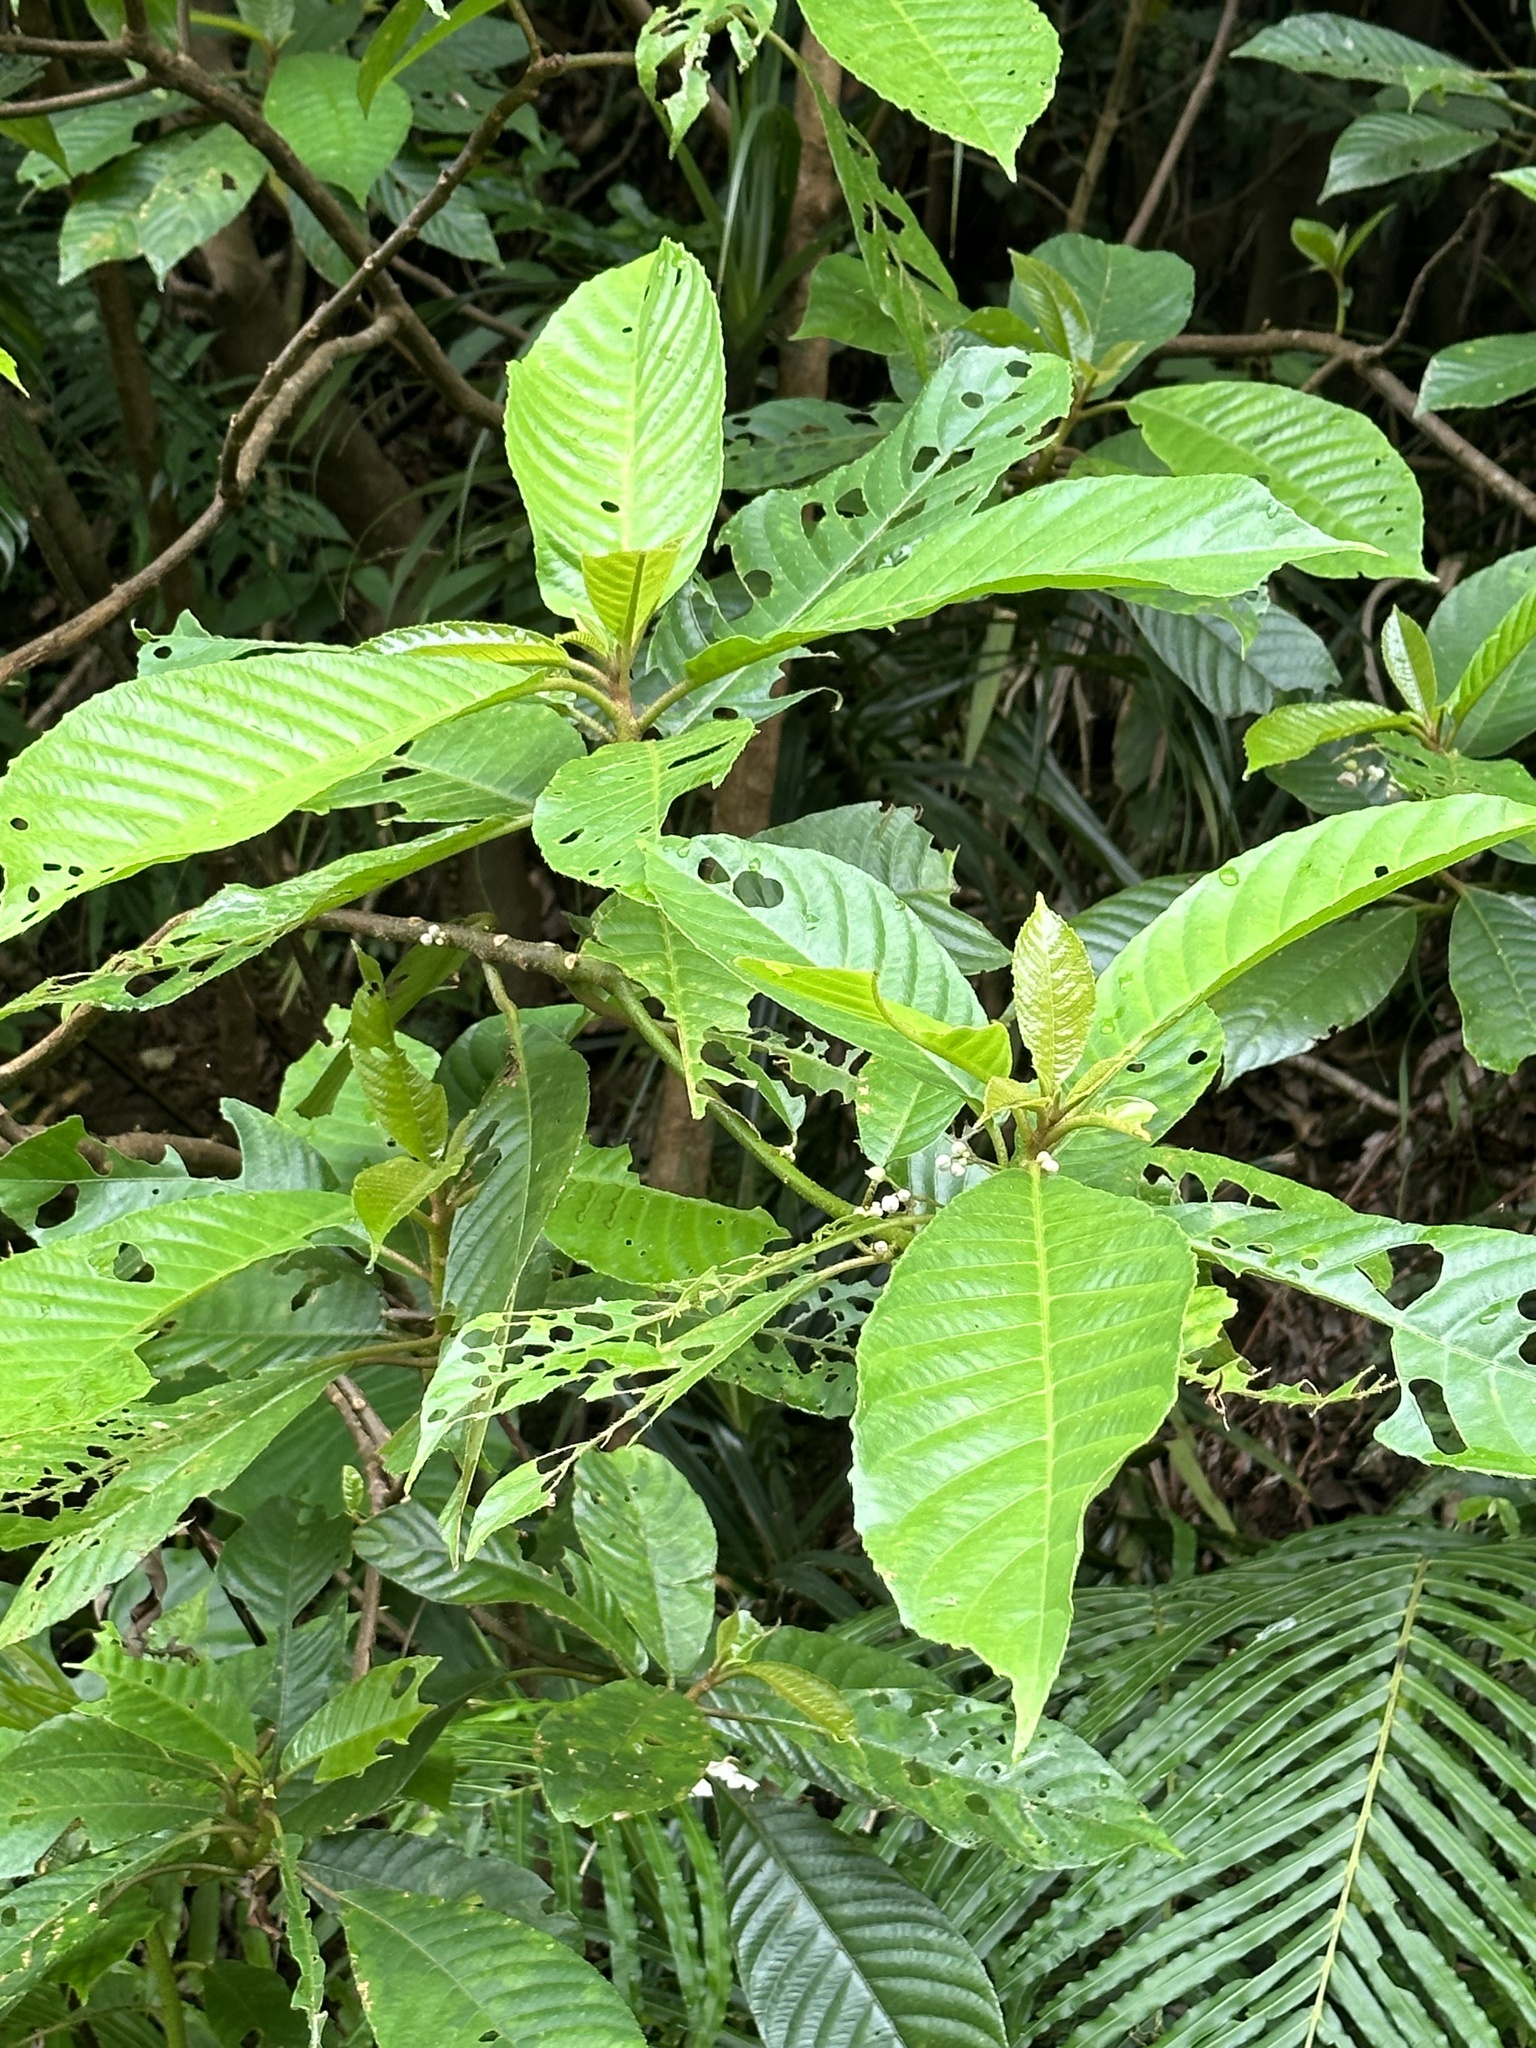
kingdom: Plantae
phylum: Tracheophyta
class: Magnoliopsida
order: Ericales
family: Actinidiaceae
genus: Saurauia
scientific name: Saurauia tristyla
